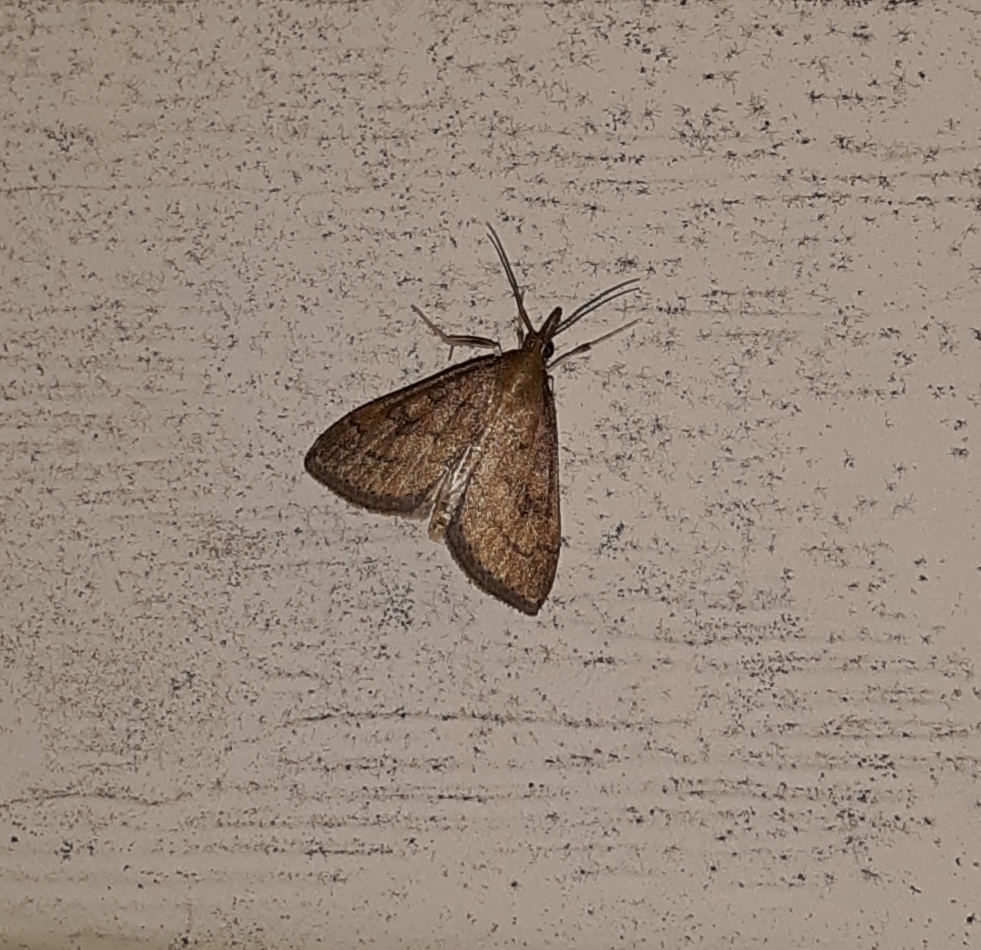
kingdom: Animalia
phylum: Arthropoda
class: Insecta
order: Lepidoptera
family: Crambidae
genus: Udea
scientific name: Udea rubigalis
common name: Celery leaftier moth
